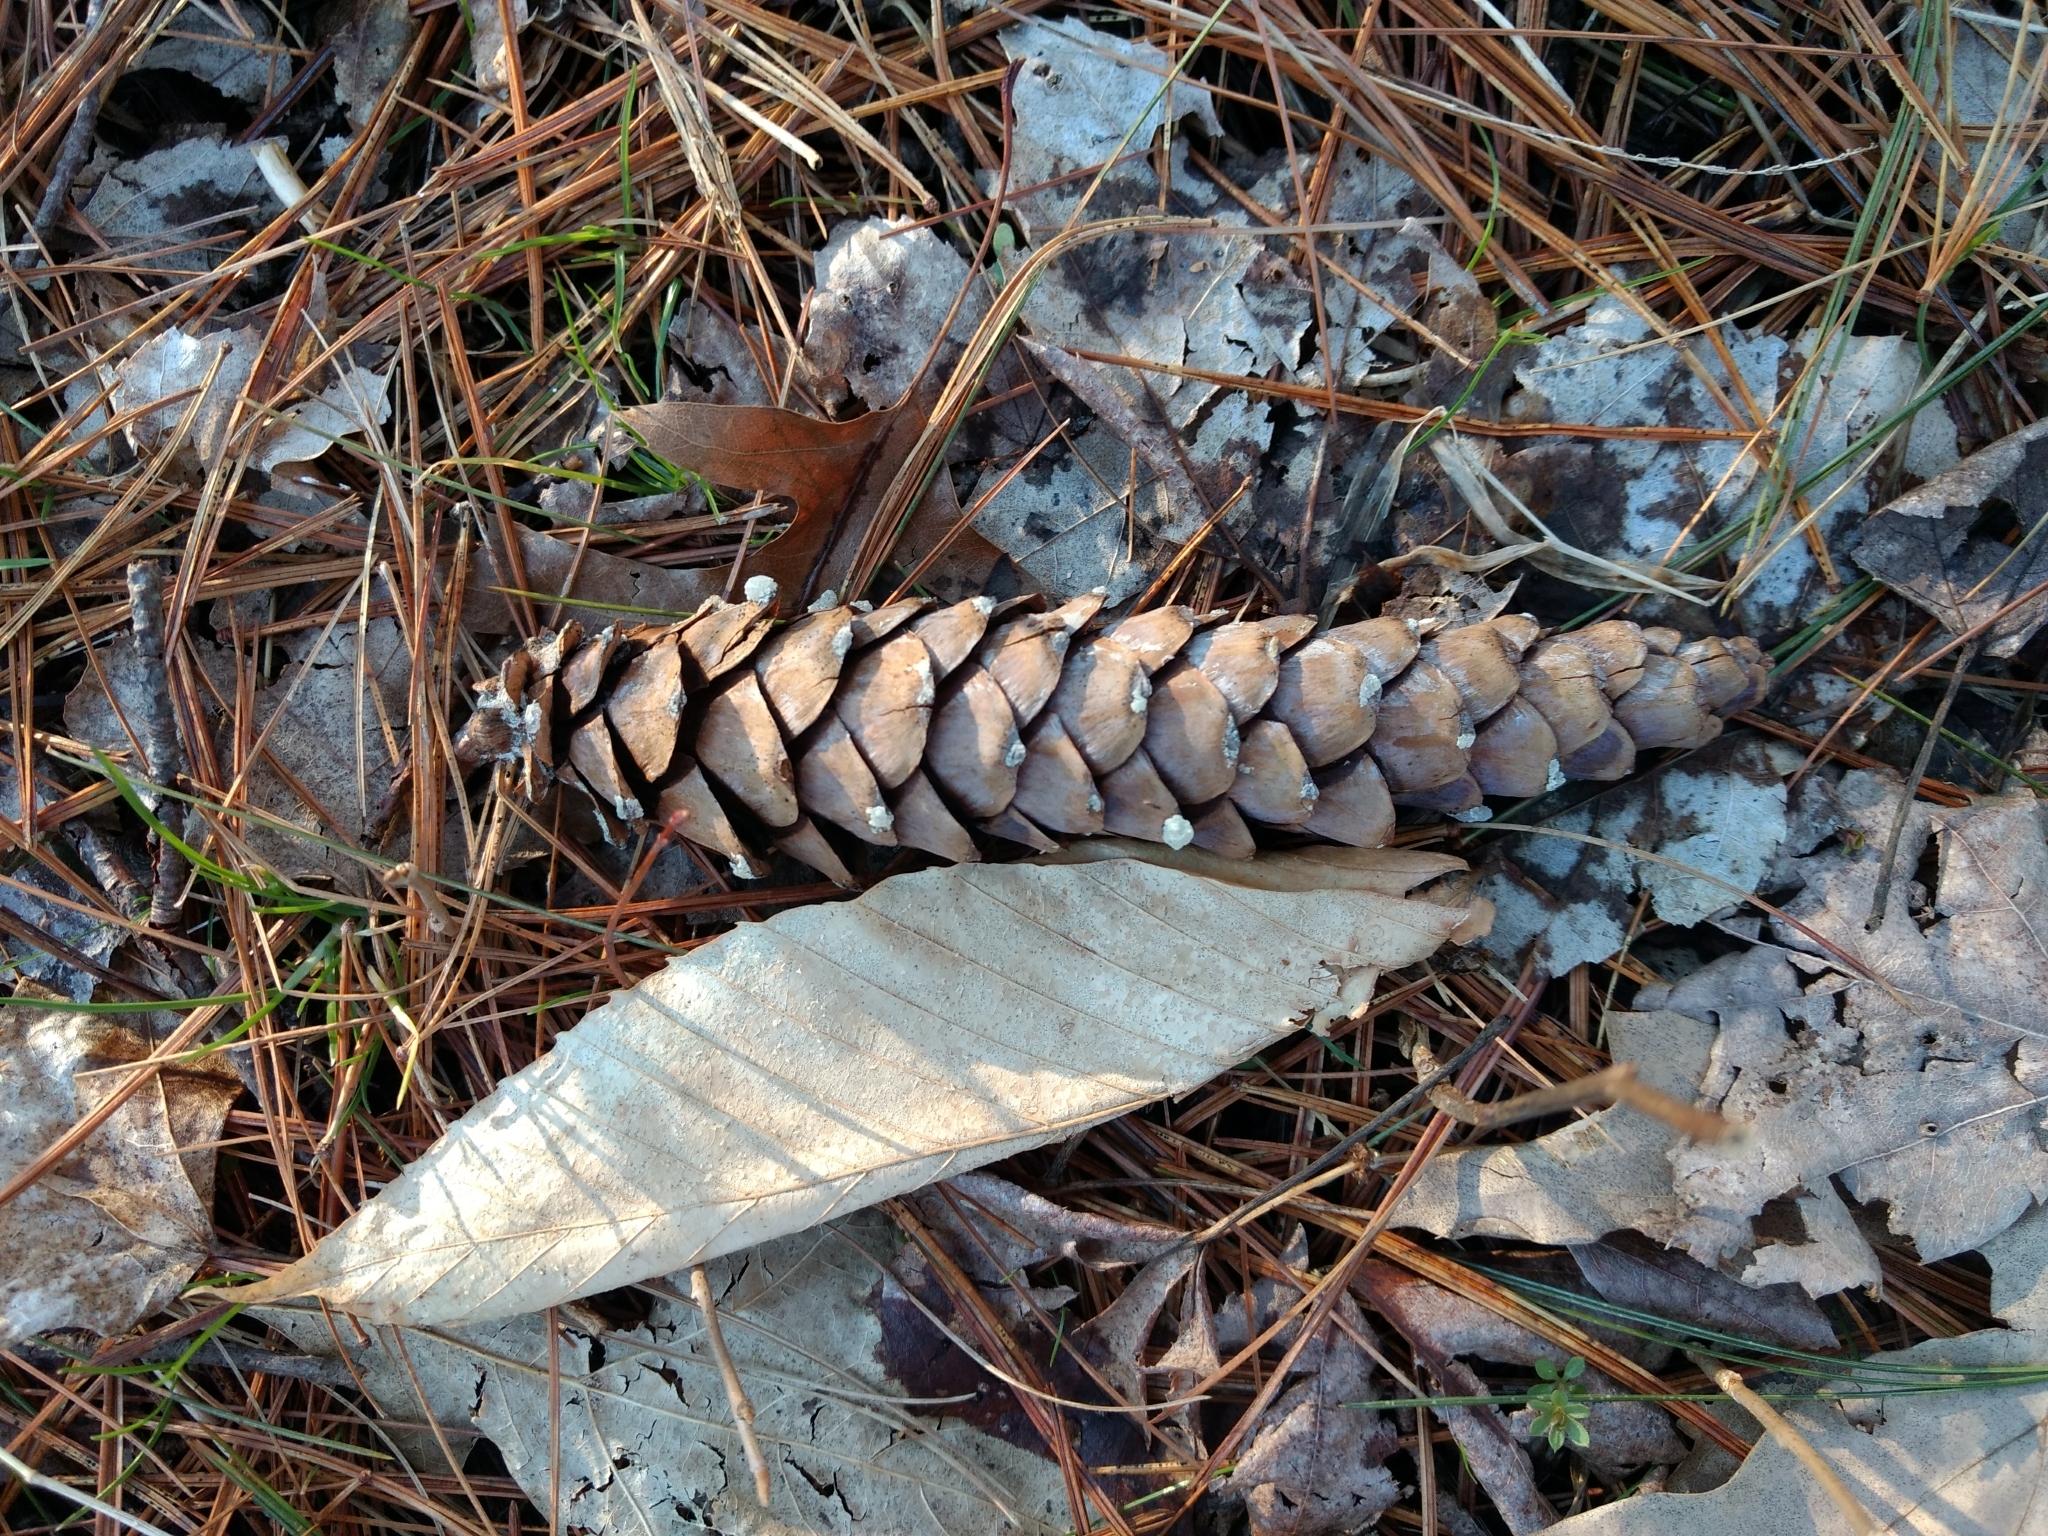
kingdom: Plantae
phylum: Tracheophyta
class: Pinopsida
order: Pinales
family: Pinaceae
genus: Pinus
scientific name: Pinus strobus
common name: Weymouth pine
